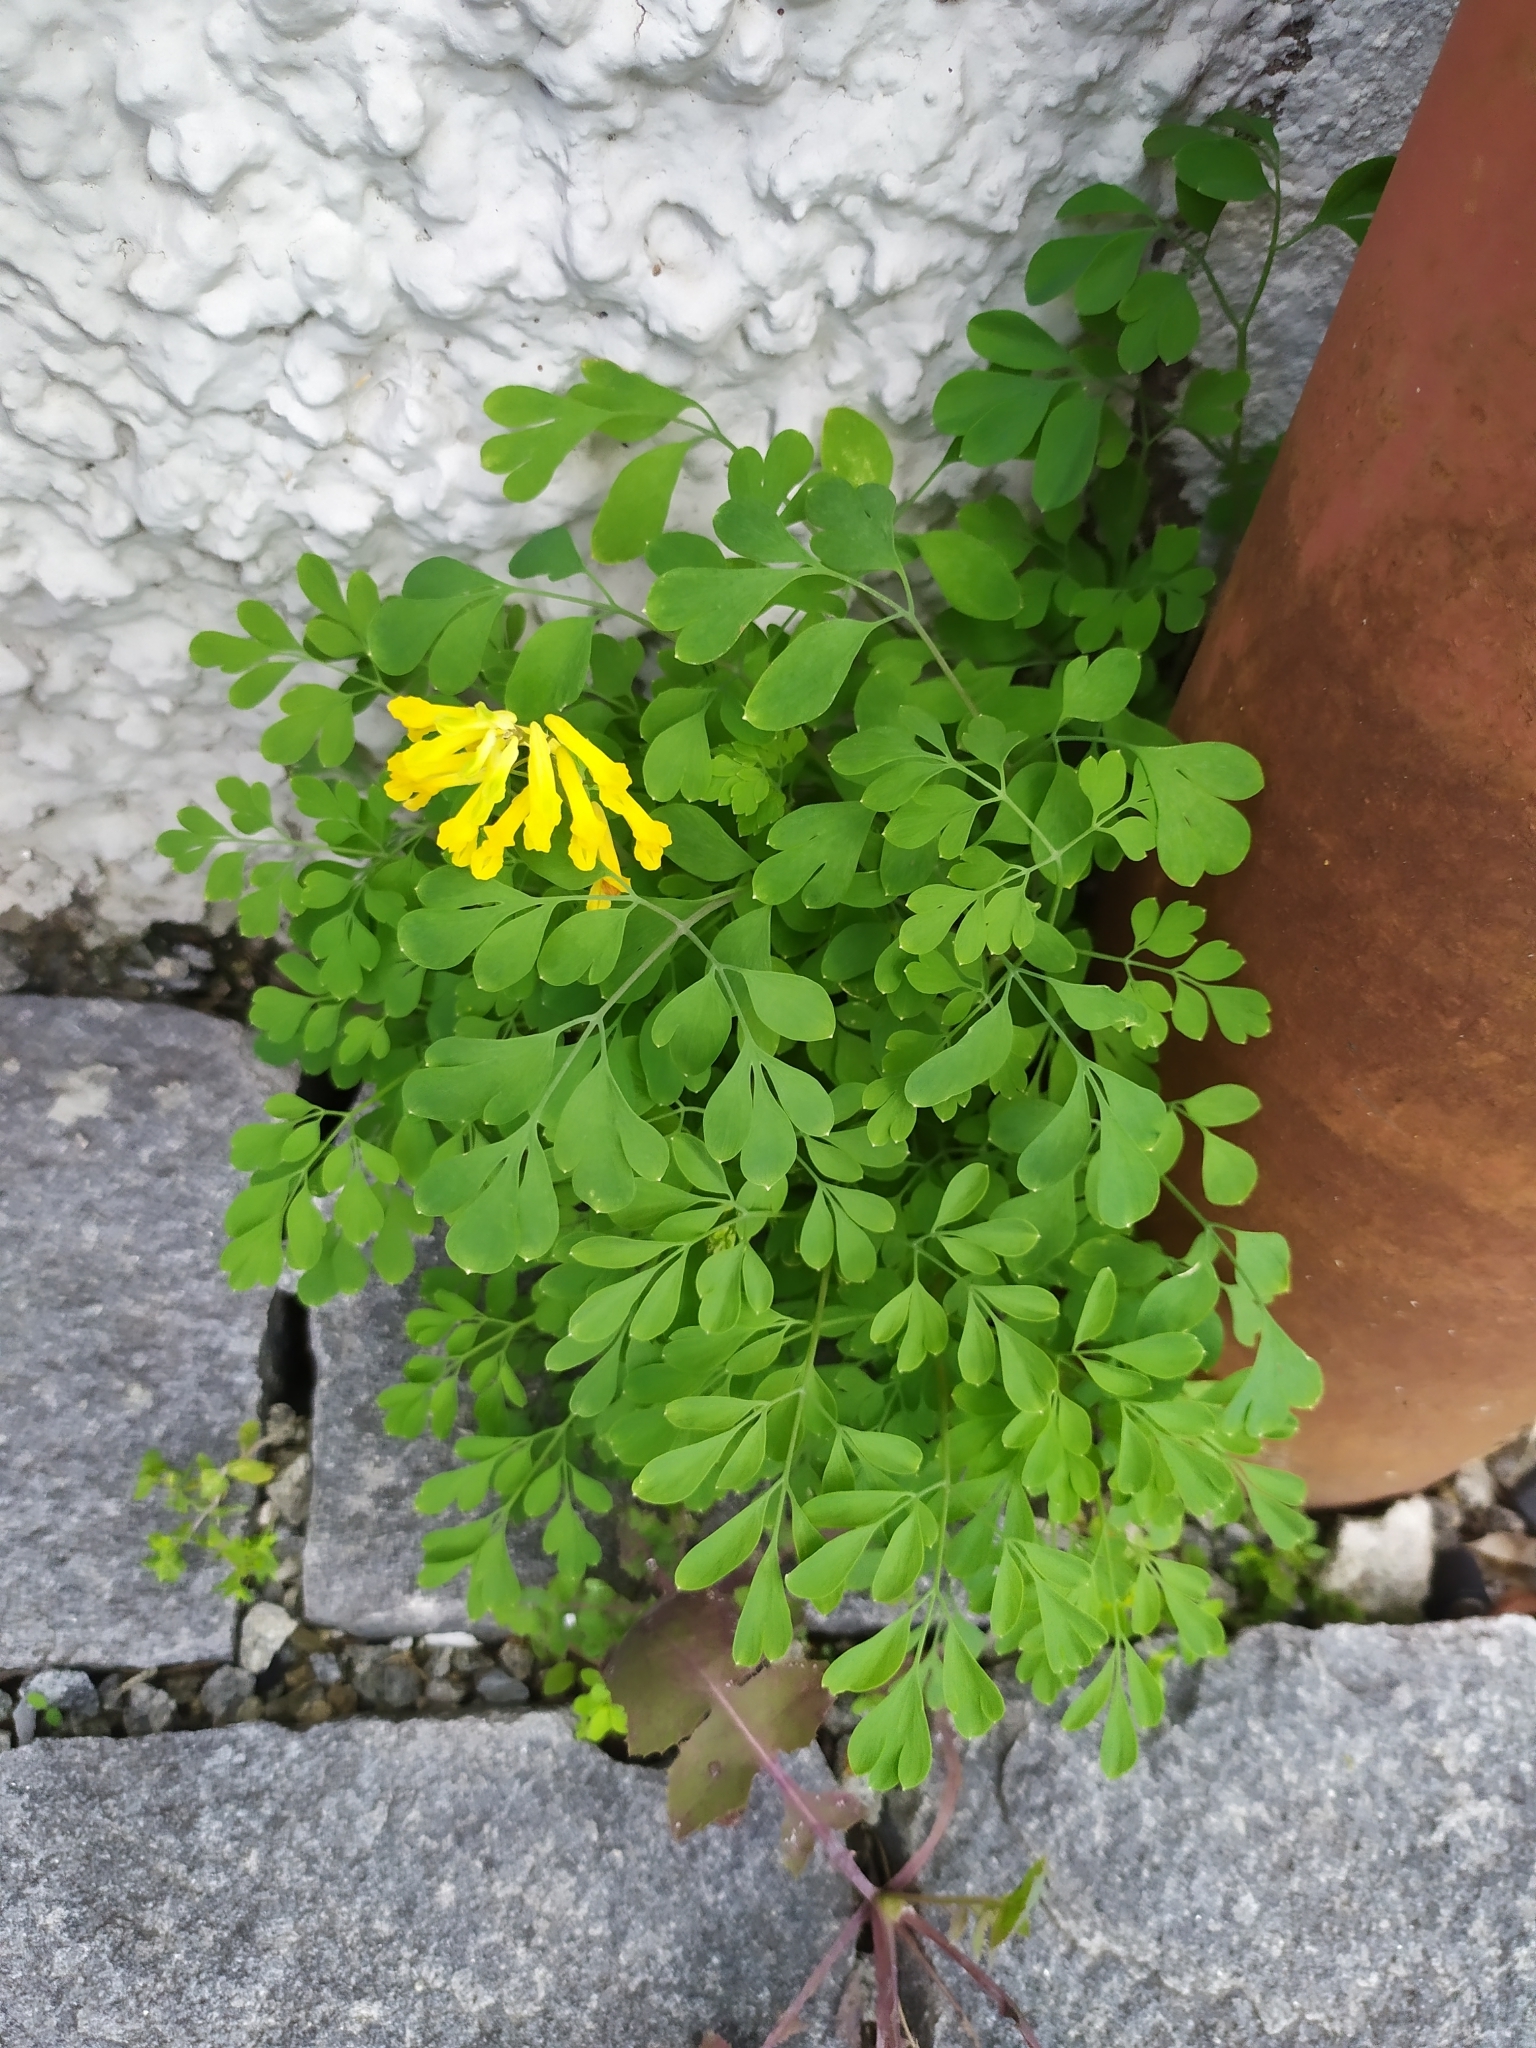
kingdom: Plantae
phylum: Tracheophyta
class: Magnoliopsida
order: Ranunculales
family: Papaveraceae
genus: Pseudofumaria
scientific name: Pseudofumaria lutea
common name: Yellow corydalis
